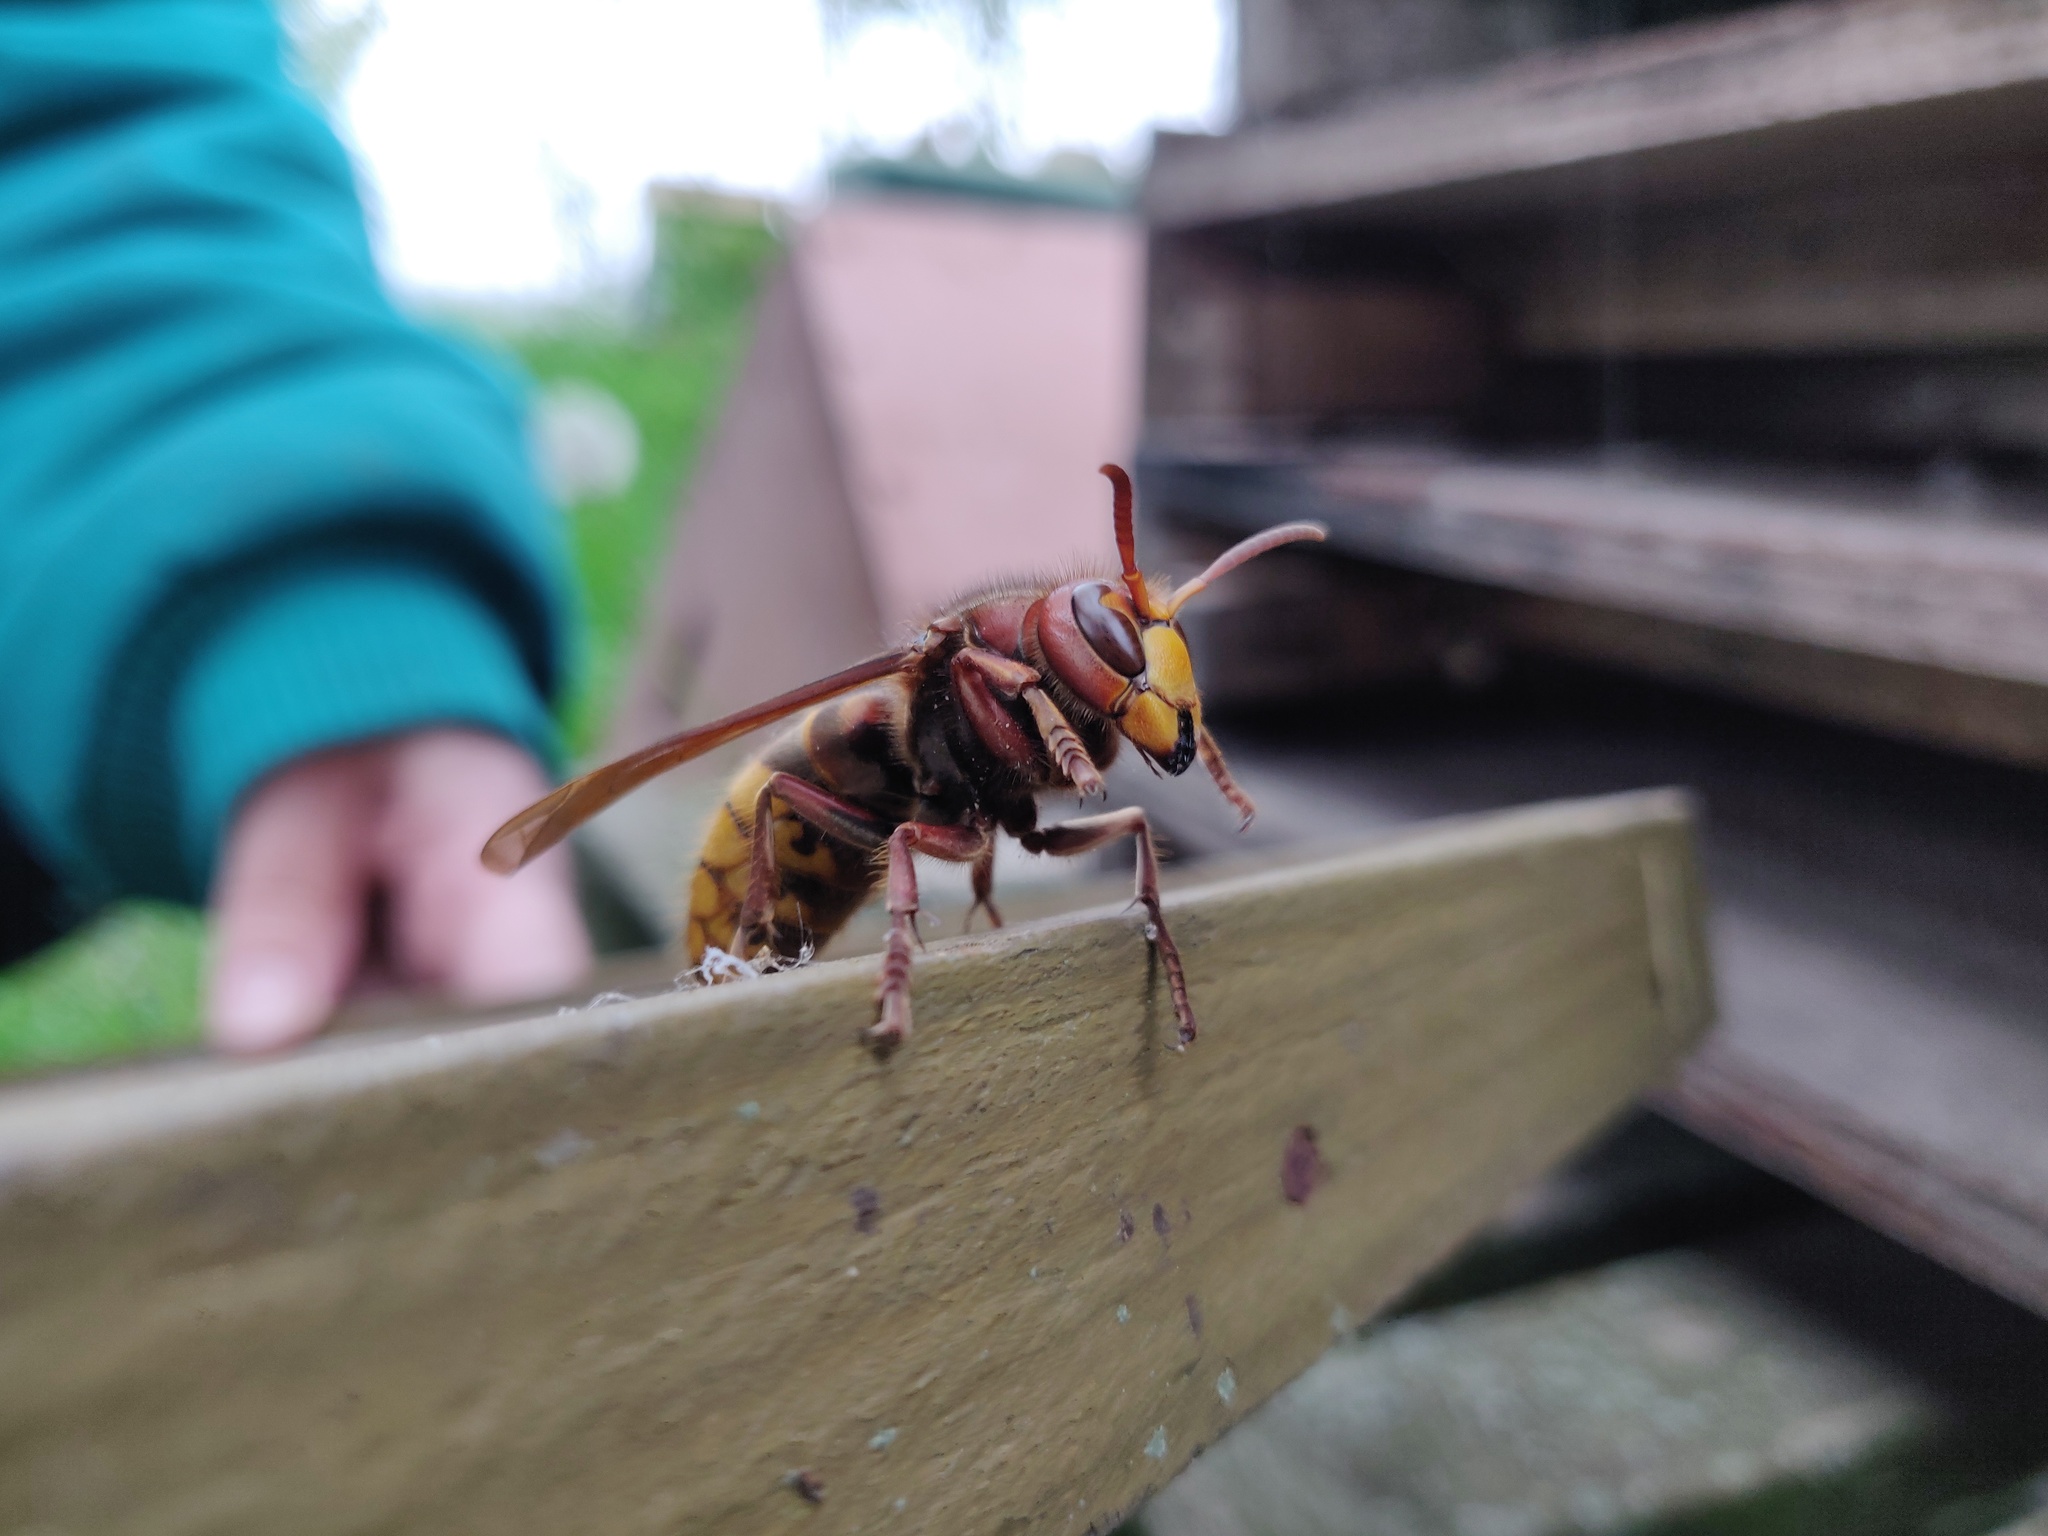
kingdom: Animalia
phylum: Arthropoda
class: Insecta
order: Hymenoptera
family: Vespidae
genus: Vespa
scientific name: Vespa crabro
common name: Hornet
